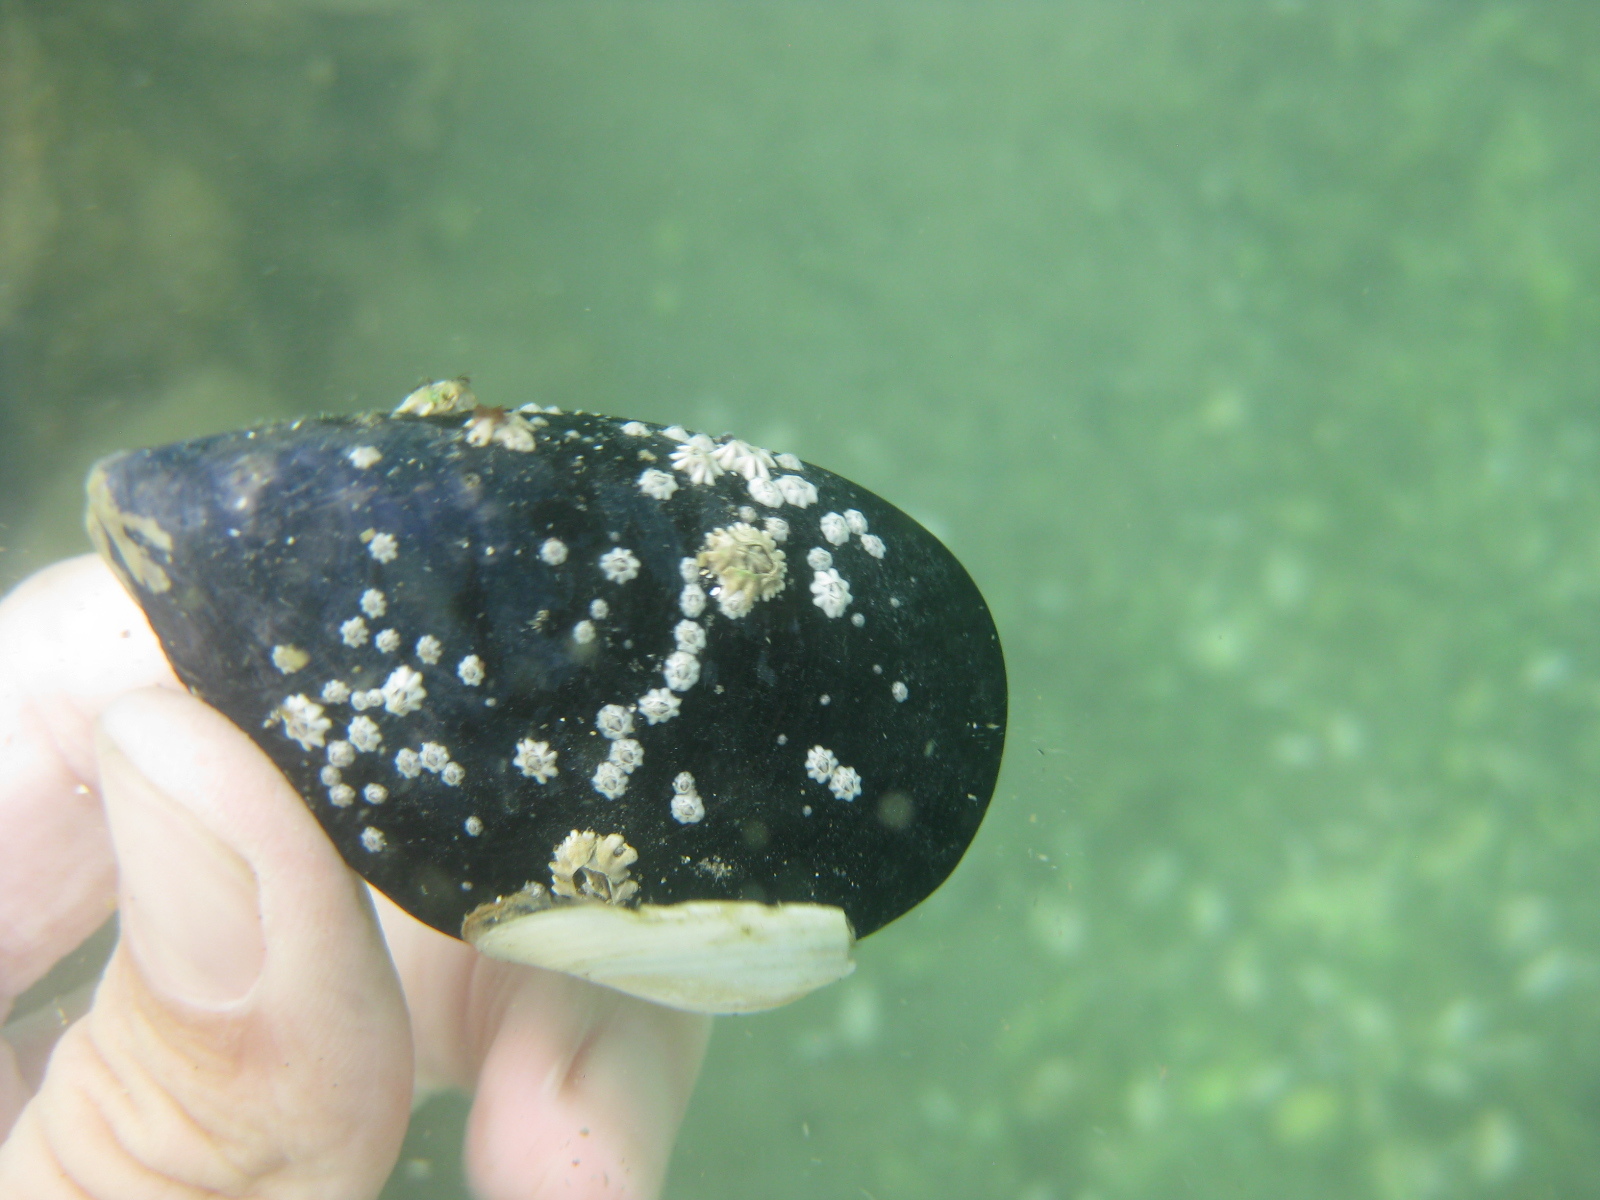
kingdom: Animalia
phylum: Mollusca
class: Bivalvia
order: Mytilida
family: Mytilidae
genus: Mytilus
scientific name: Mytilus planulatus
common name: Australian mussel
